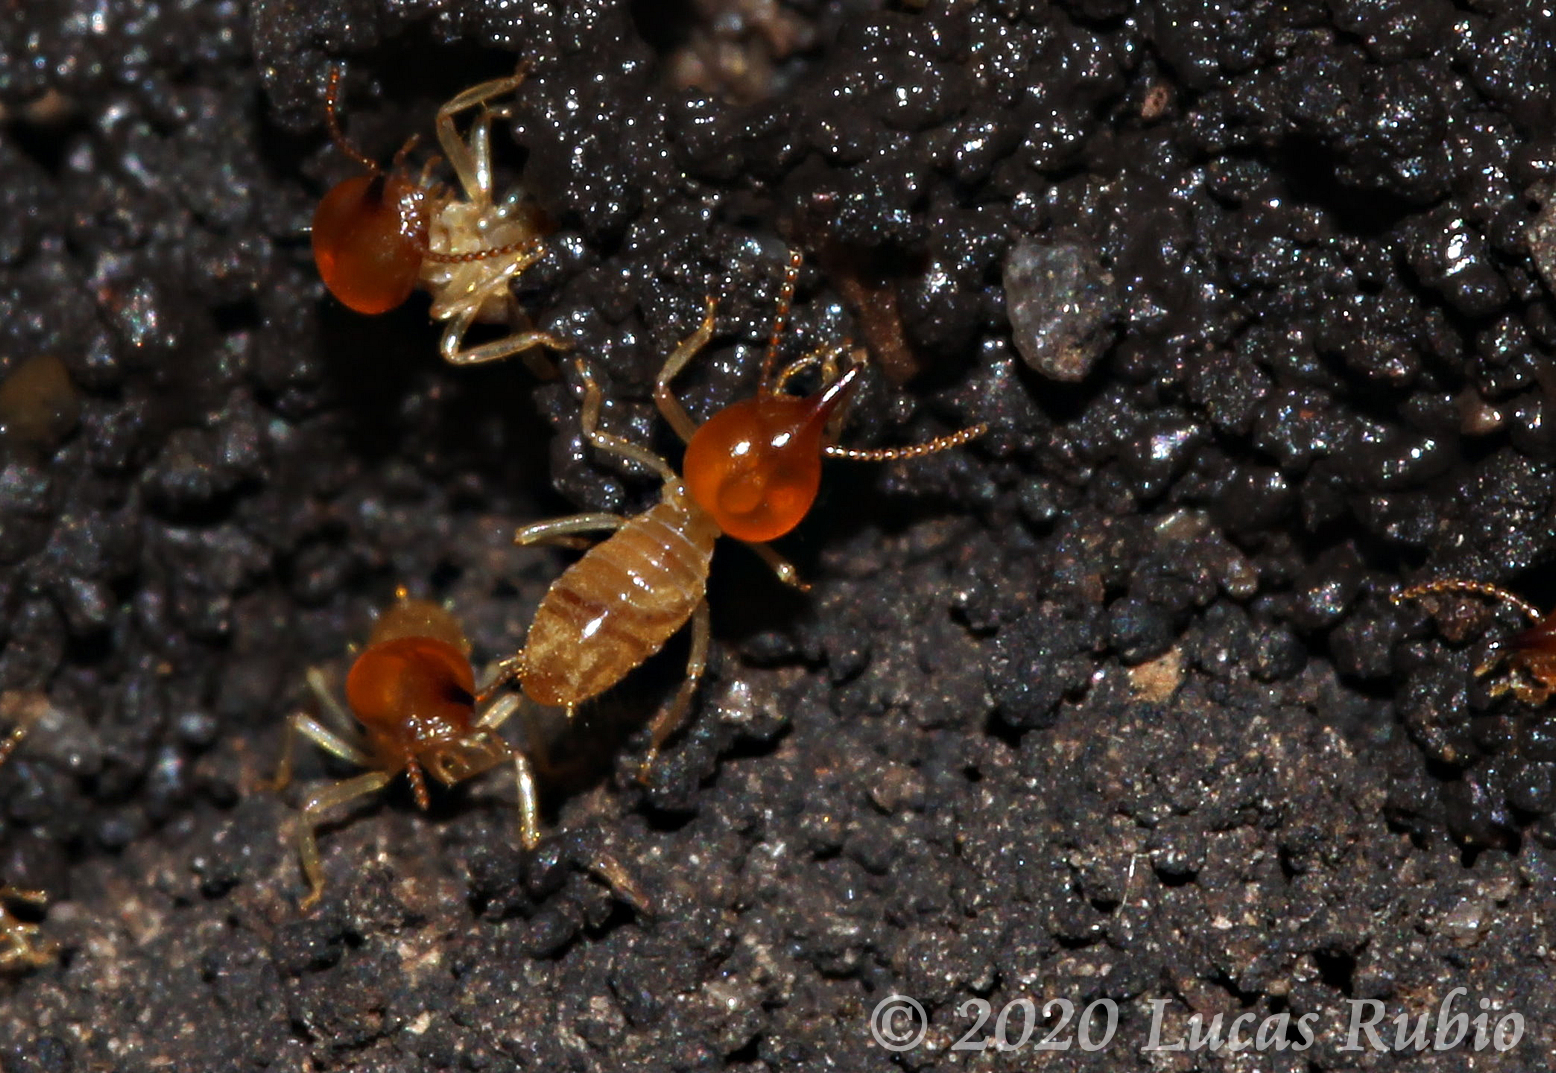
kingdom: Animalia
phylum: Arthropoda
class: Insecta
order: Blattodea
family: Termitidae
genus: Cortaritermes
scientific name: Cortaritermes fulviceps
